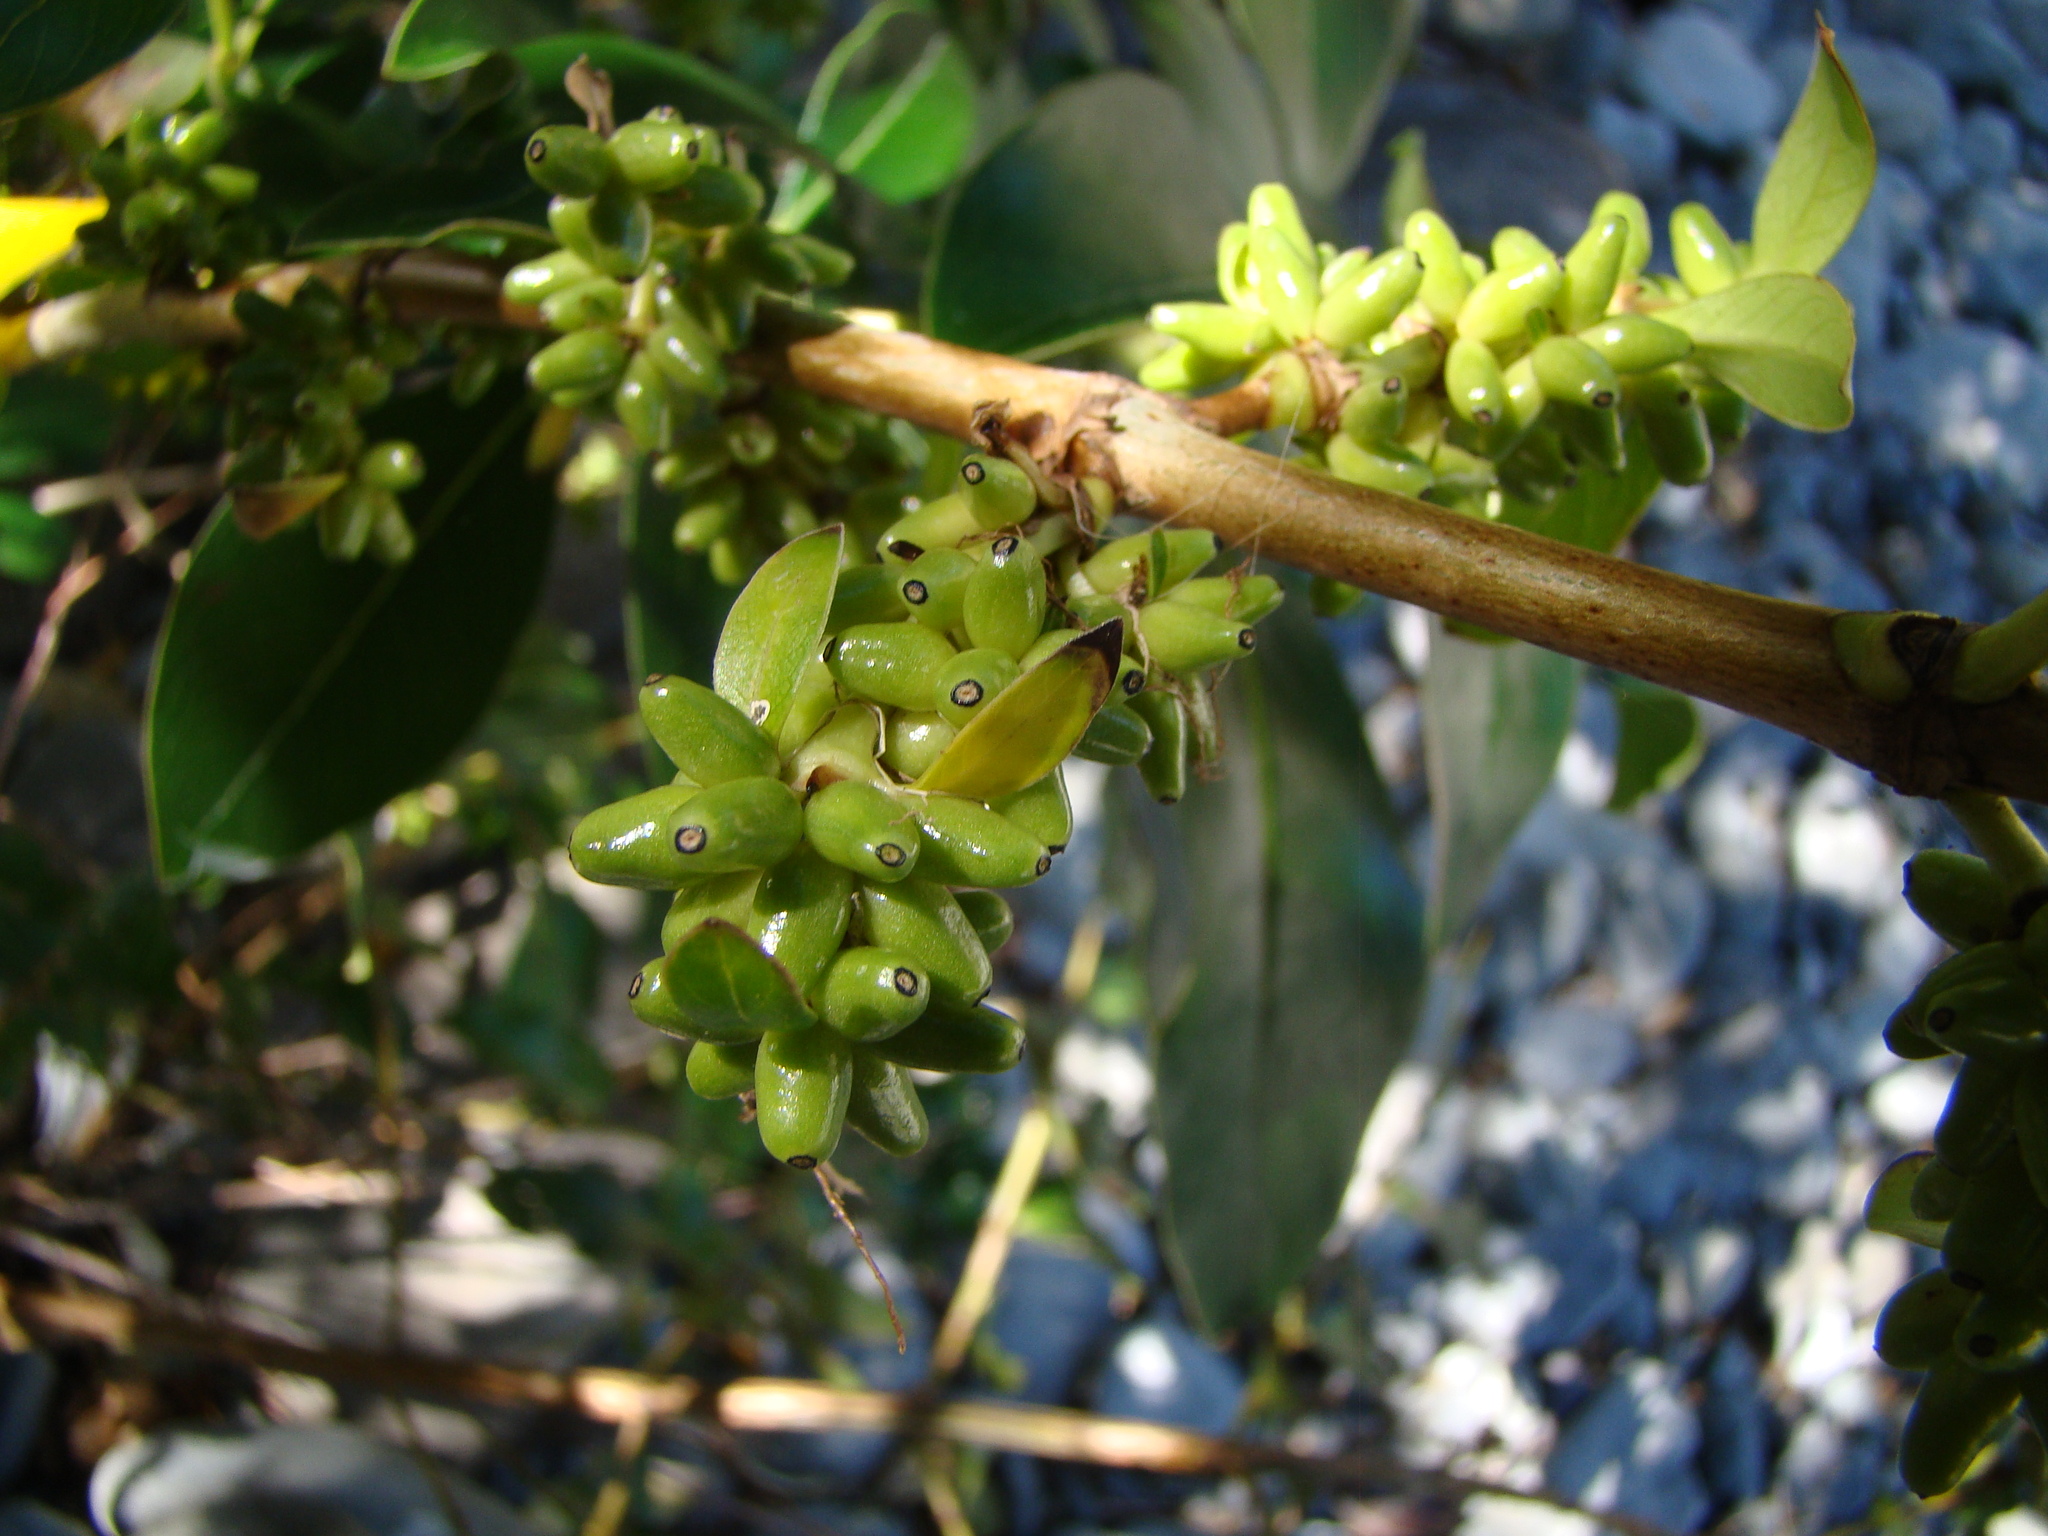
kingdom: Plantae
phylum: Tracheophyta
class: Magnoliopsida
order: Gentianales
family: Rubiaceae
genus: Coprosma
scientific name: Coprosma robusta
